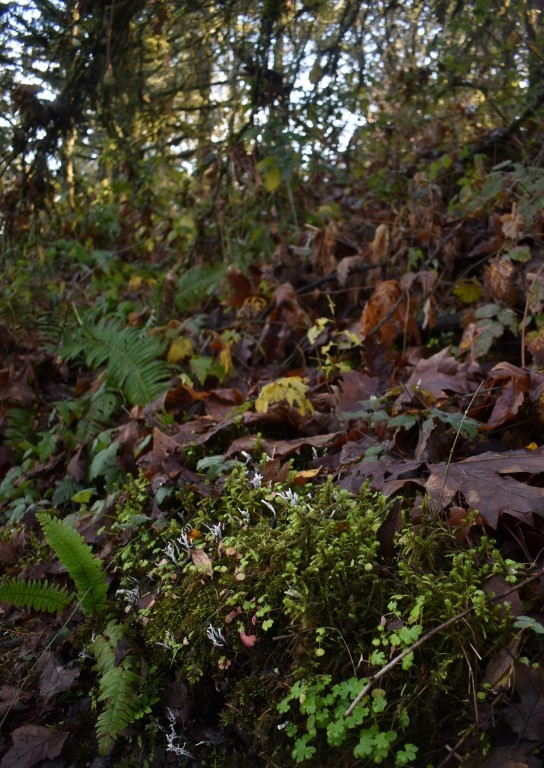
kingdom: Fungi
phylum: Ascomycota
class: Sordariomycetes
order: Xylariales
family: Xylariaceae
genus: Xylaria
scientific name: Xylaria hypoxylon
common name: Candle-snuff fungus
